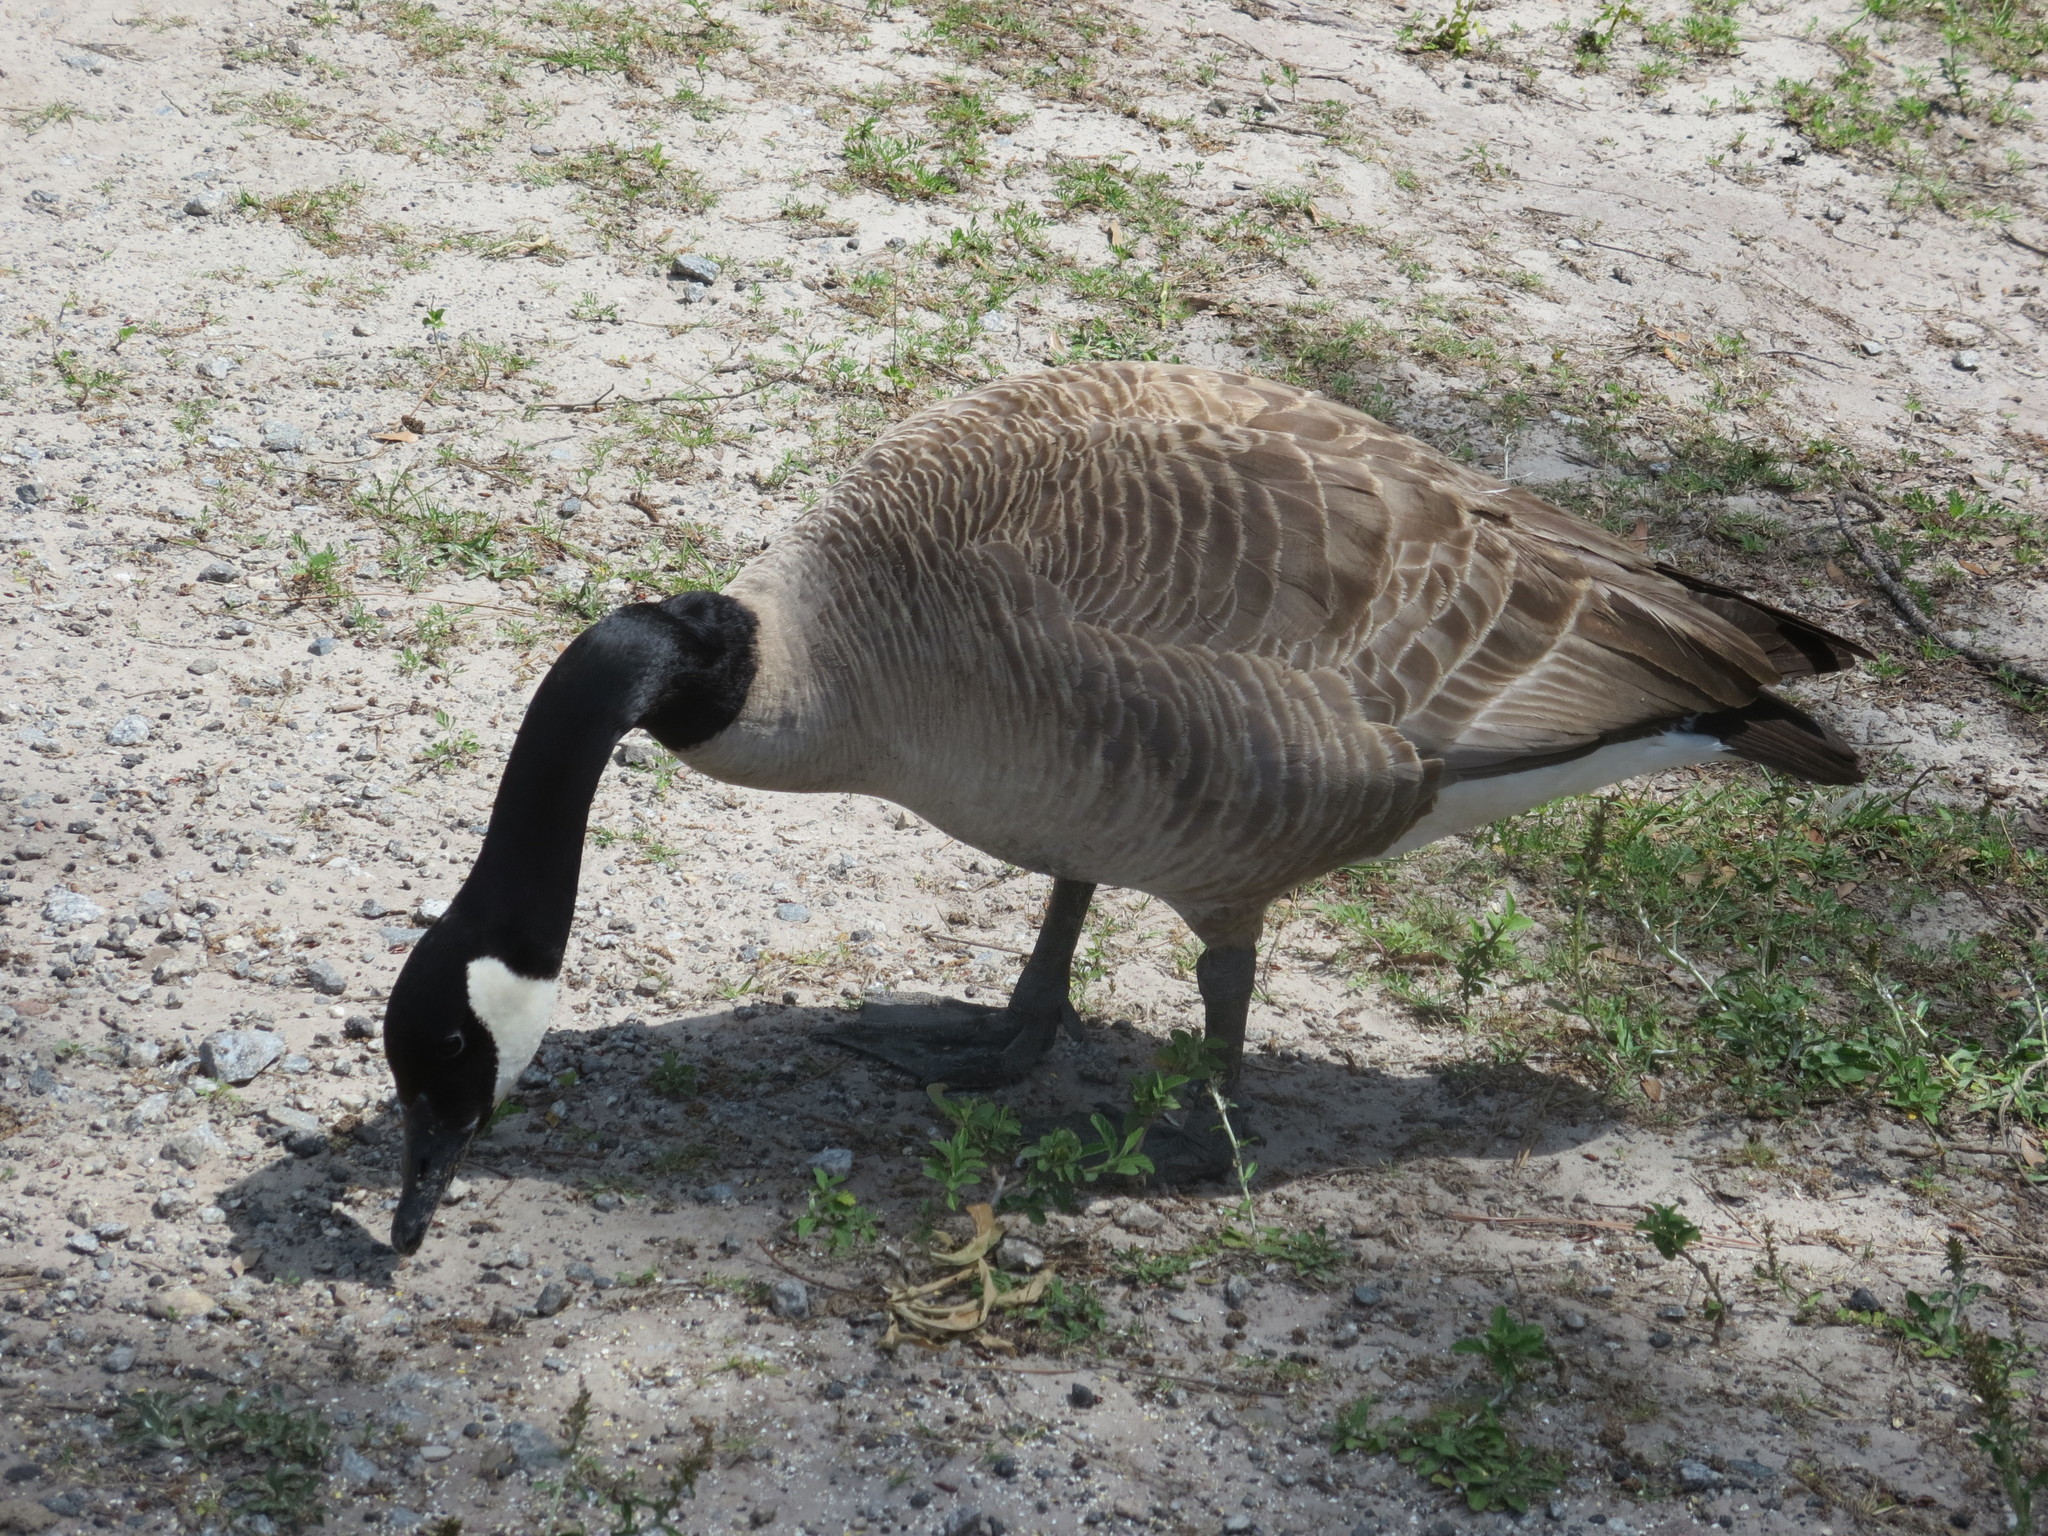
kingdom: Animalia
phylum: Chordata
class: Aves
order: Anseriformes
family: Anatidae
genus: Branta
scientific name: Branta canadensis
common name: Canada goose
